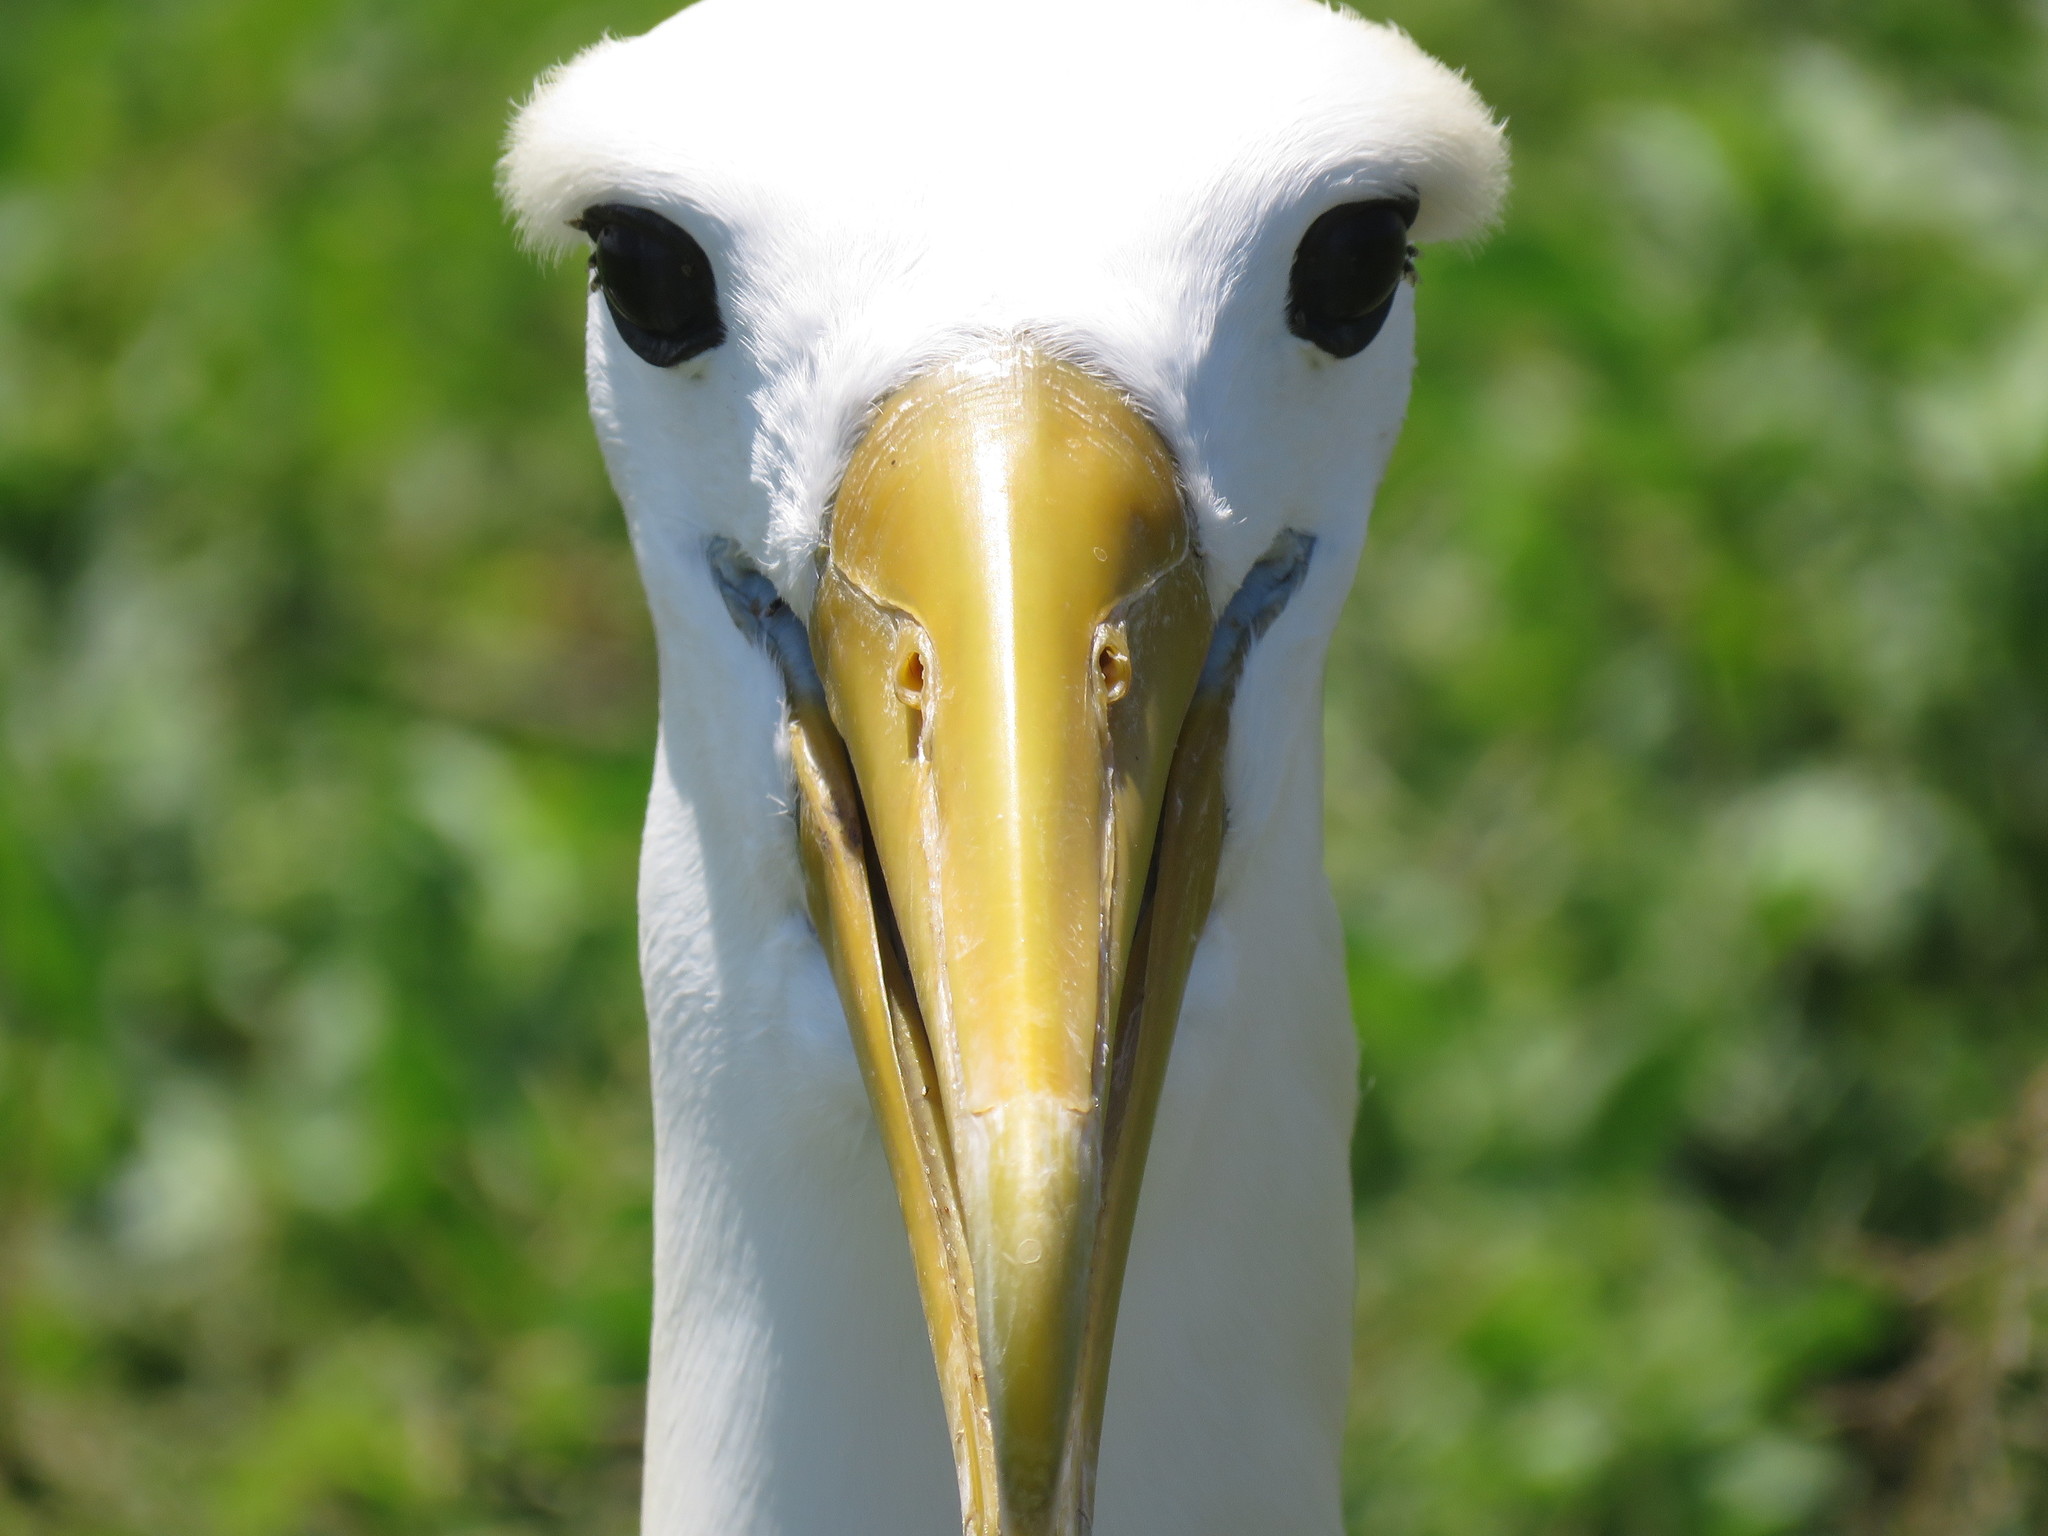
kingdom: Animalia
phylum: Chordata
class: Aves
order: Procellariiformes
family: Diomedeidae
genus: Phoebastria
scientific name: Phoebastria irrorata
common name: Waved albatross
